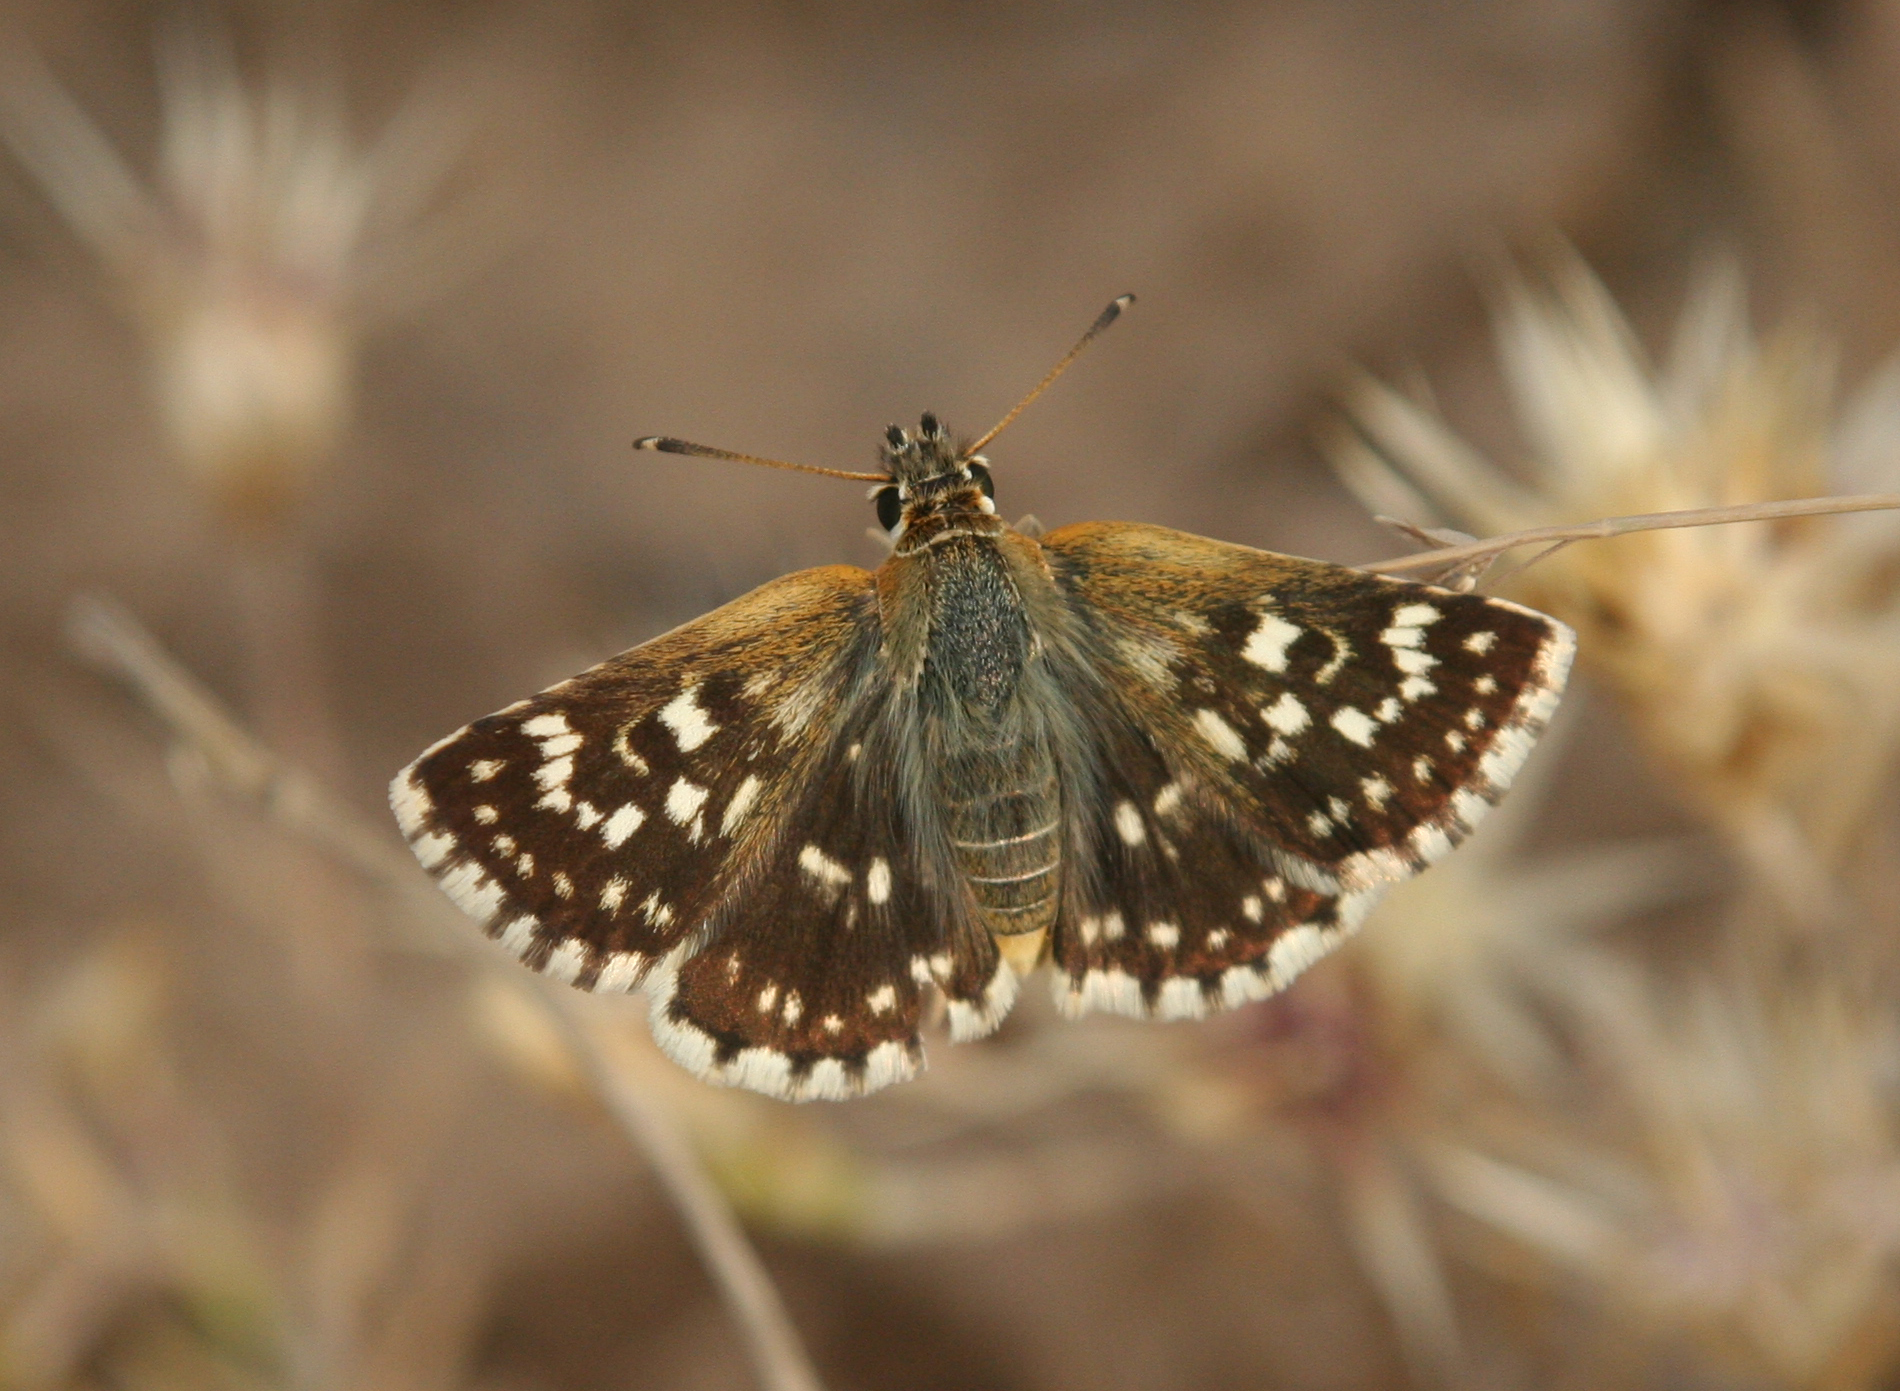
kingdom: Animalia
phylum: Arthropoda
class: Insecta
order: Lepidoptera
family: Hesperiidae
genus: Spialia
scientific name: Spialia sertorius
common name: Red underwing skipper
